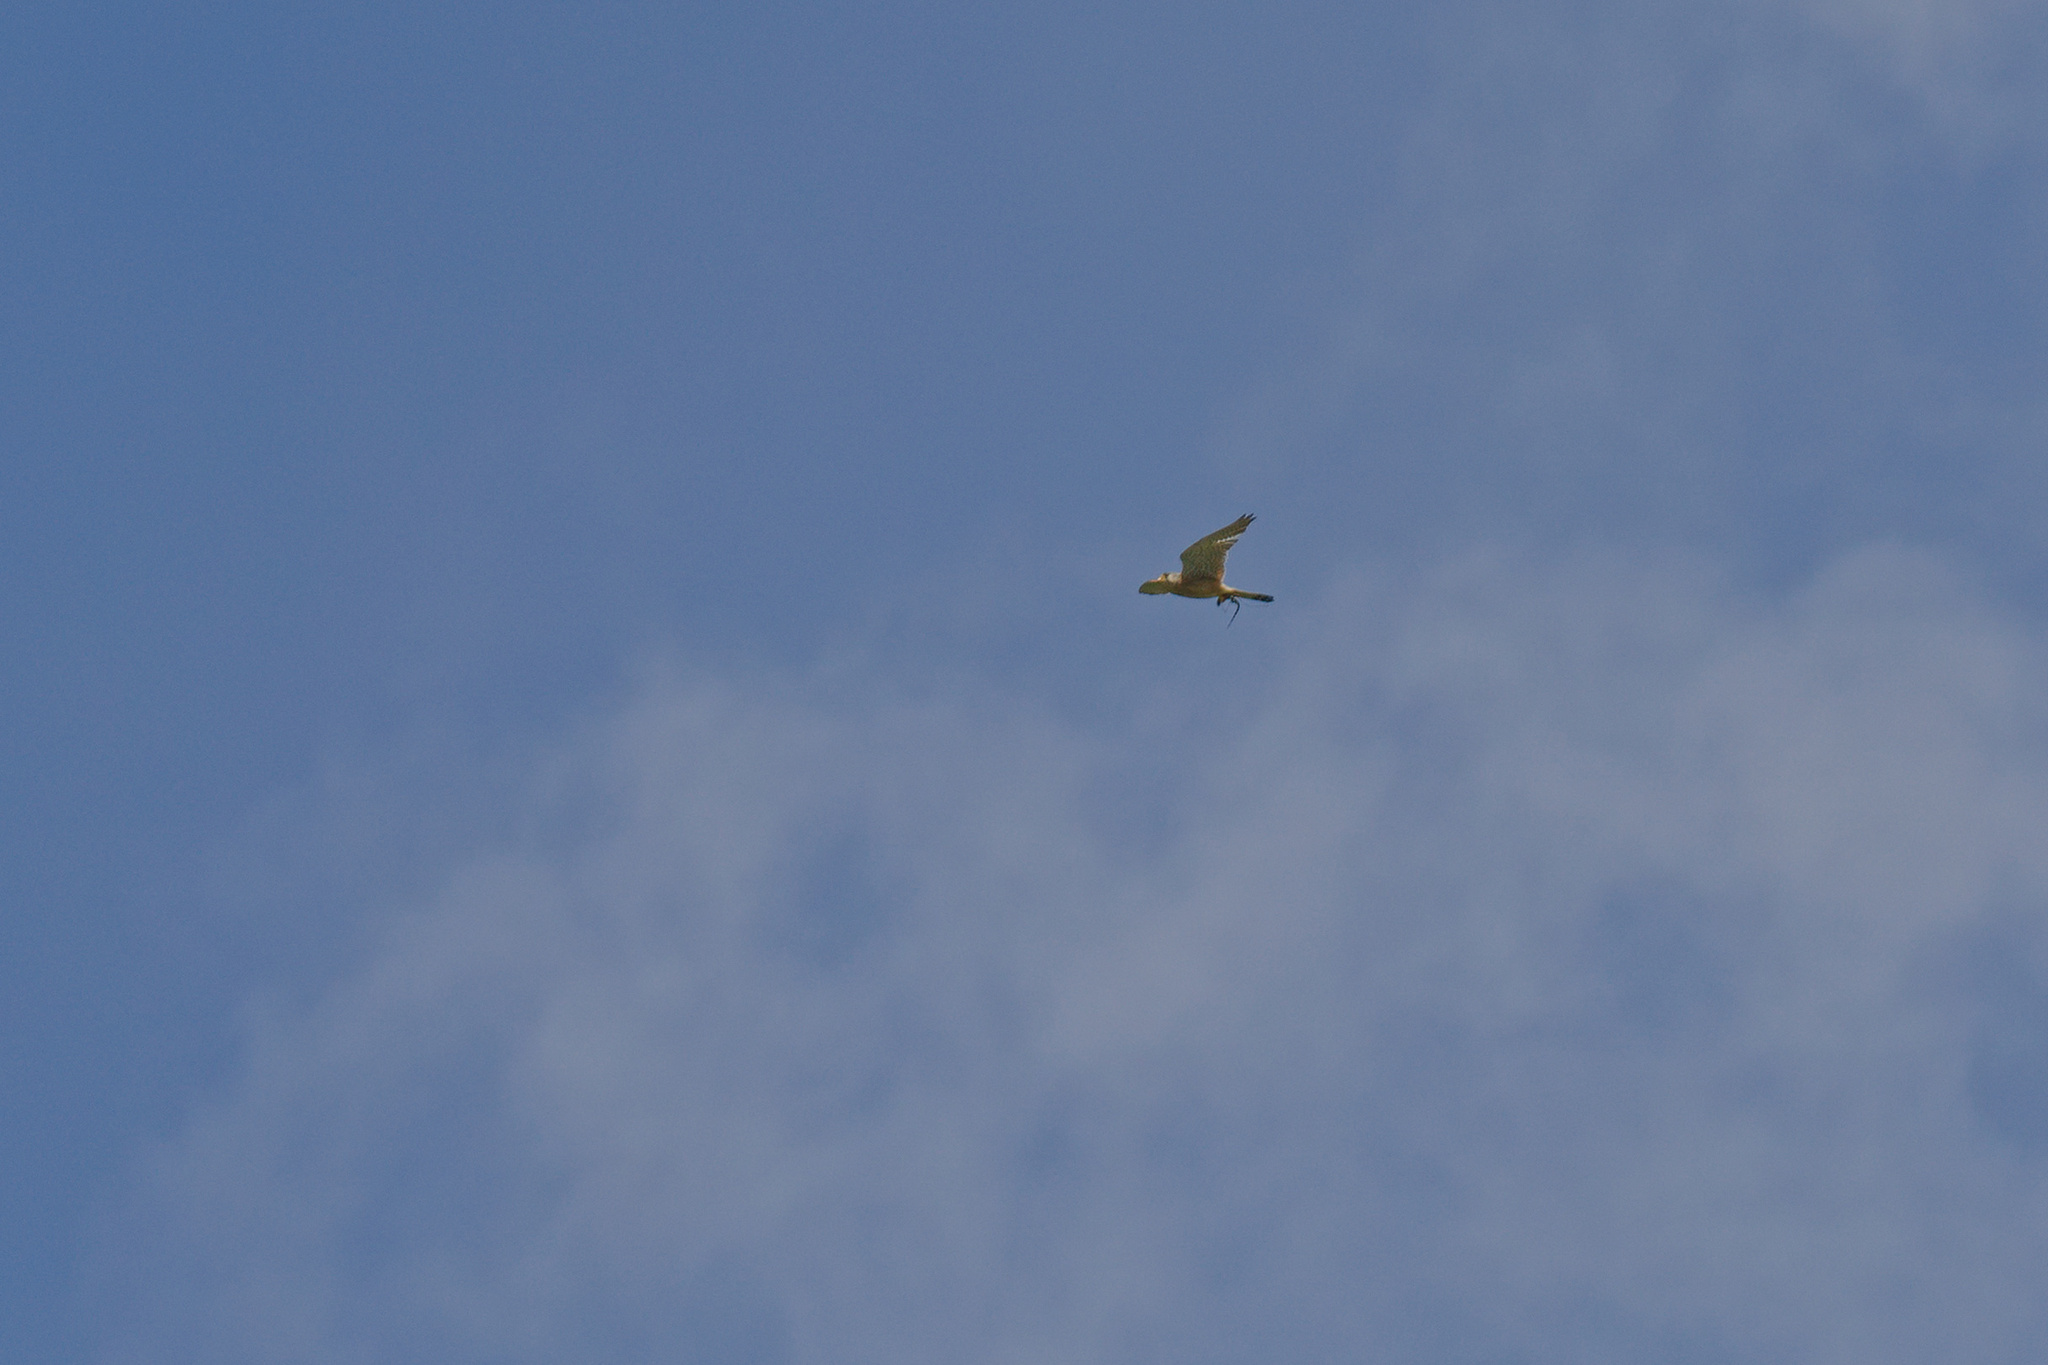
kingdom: Animalia
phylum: Chordata
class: Aves
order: Falconiformes
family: Falconidae
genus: Falco
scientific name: Falco tinnunculus
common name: Common kestrel
